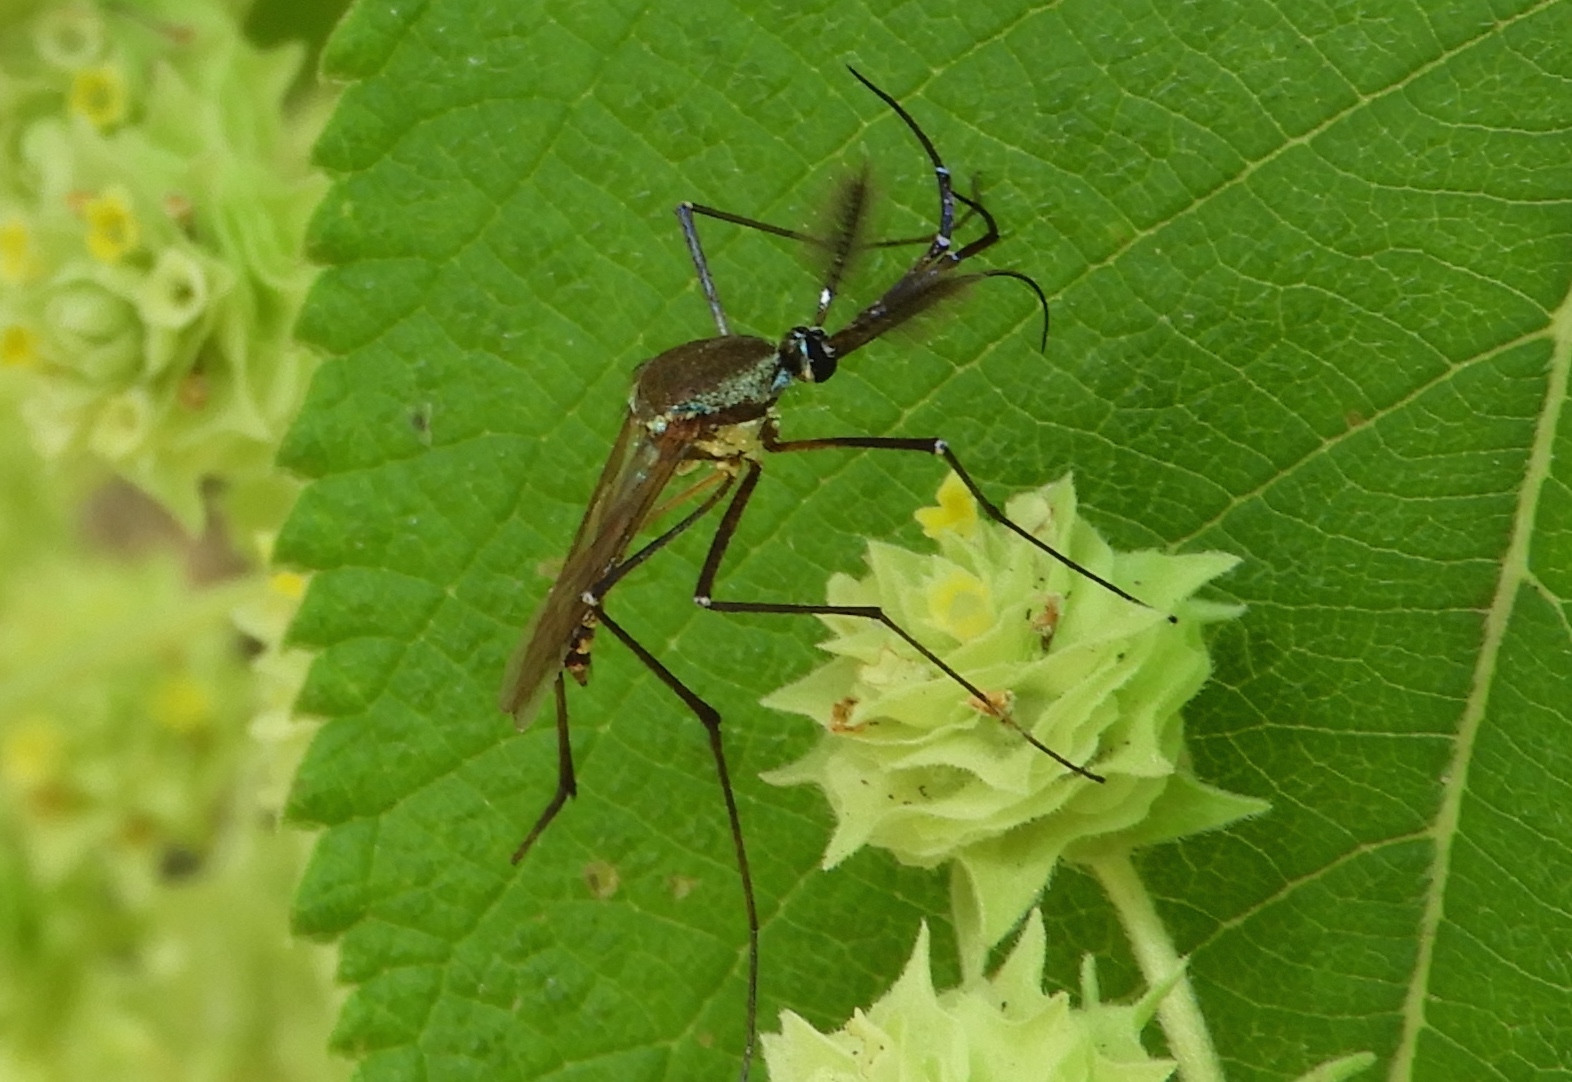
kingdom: Animalia
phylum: Arthropoda
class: Insecta
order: Diptera
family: Culicidae
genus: Toxorhynchites
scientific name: Toxorhynchites
